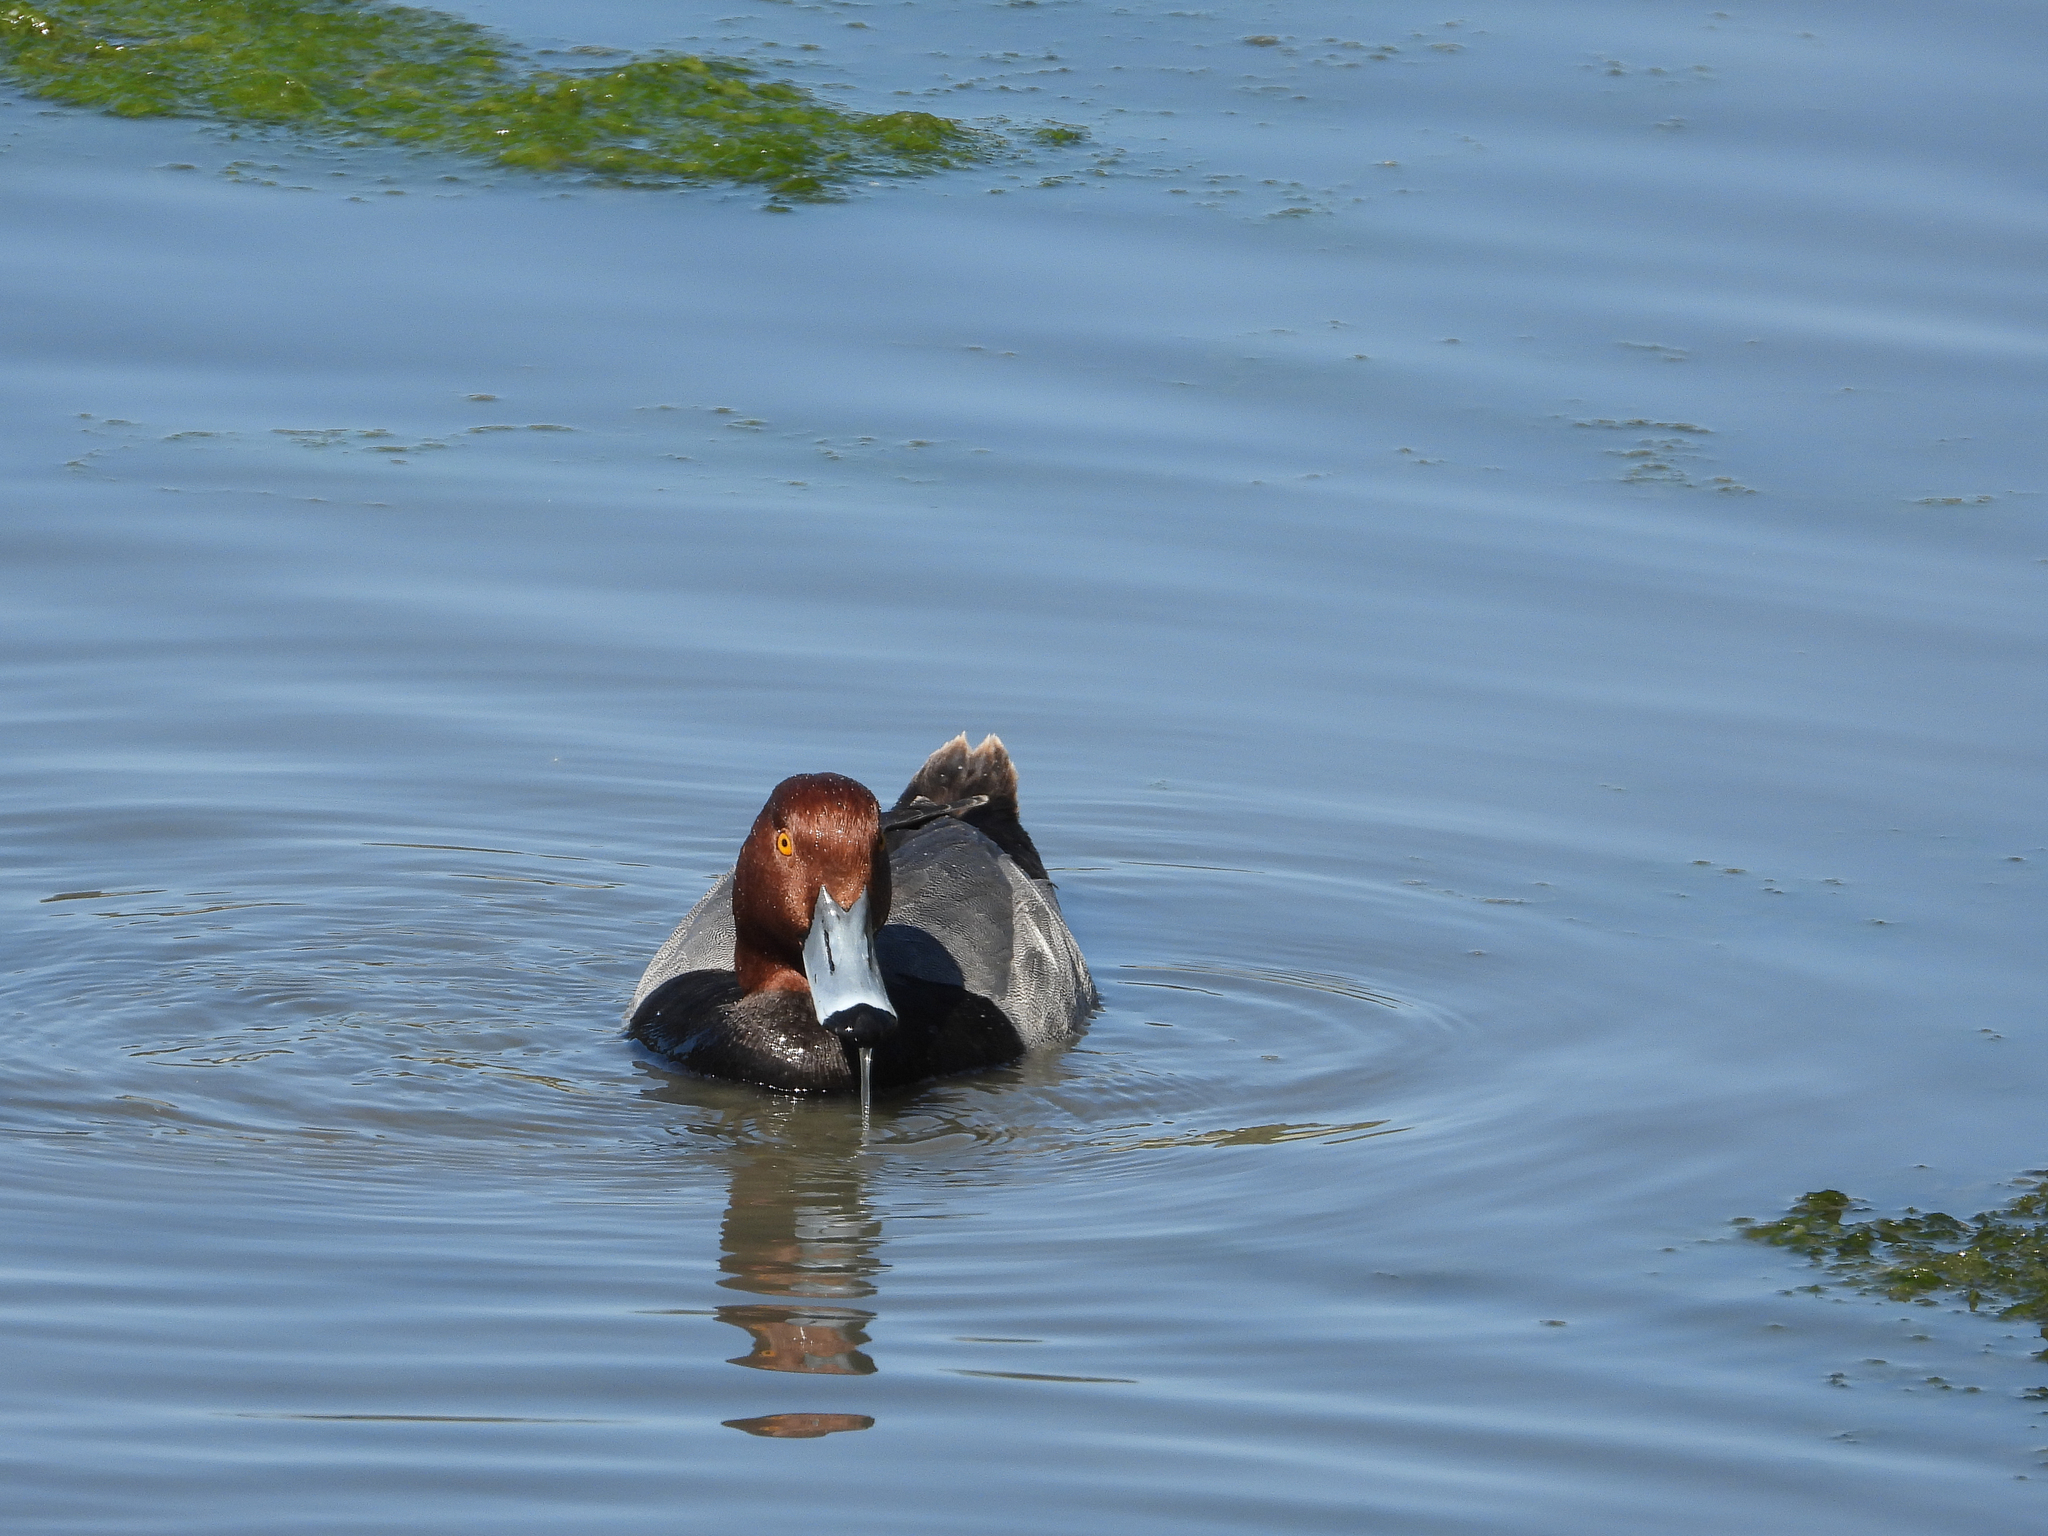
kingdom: Animalia
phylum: Chordata
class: Aves
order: Anseriformes
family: Anatidae
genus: Aythya
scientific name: Aythya americana
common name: Redhead
